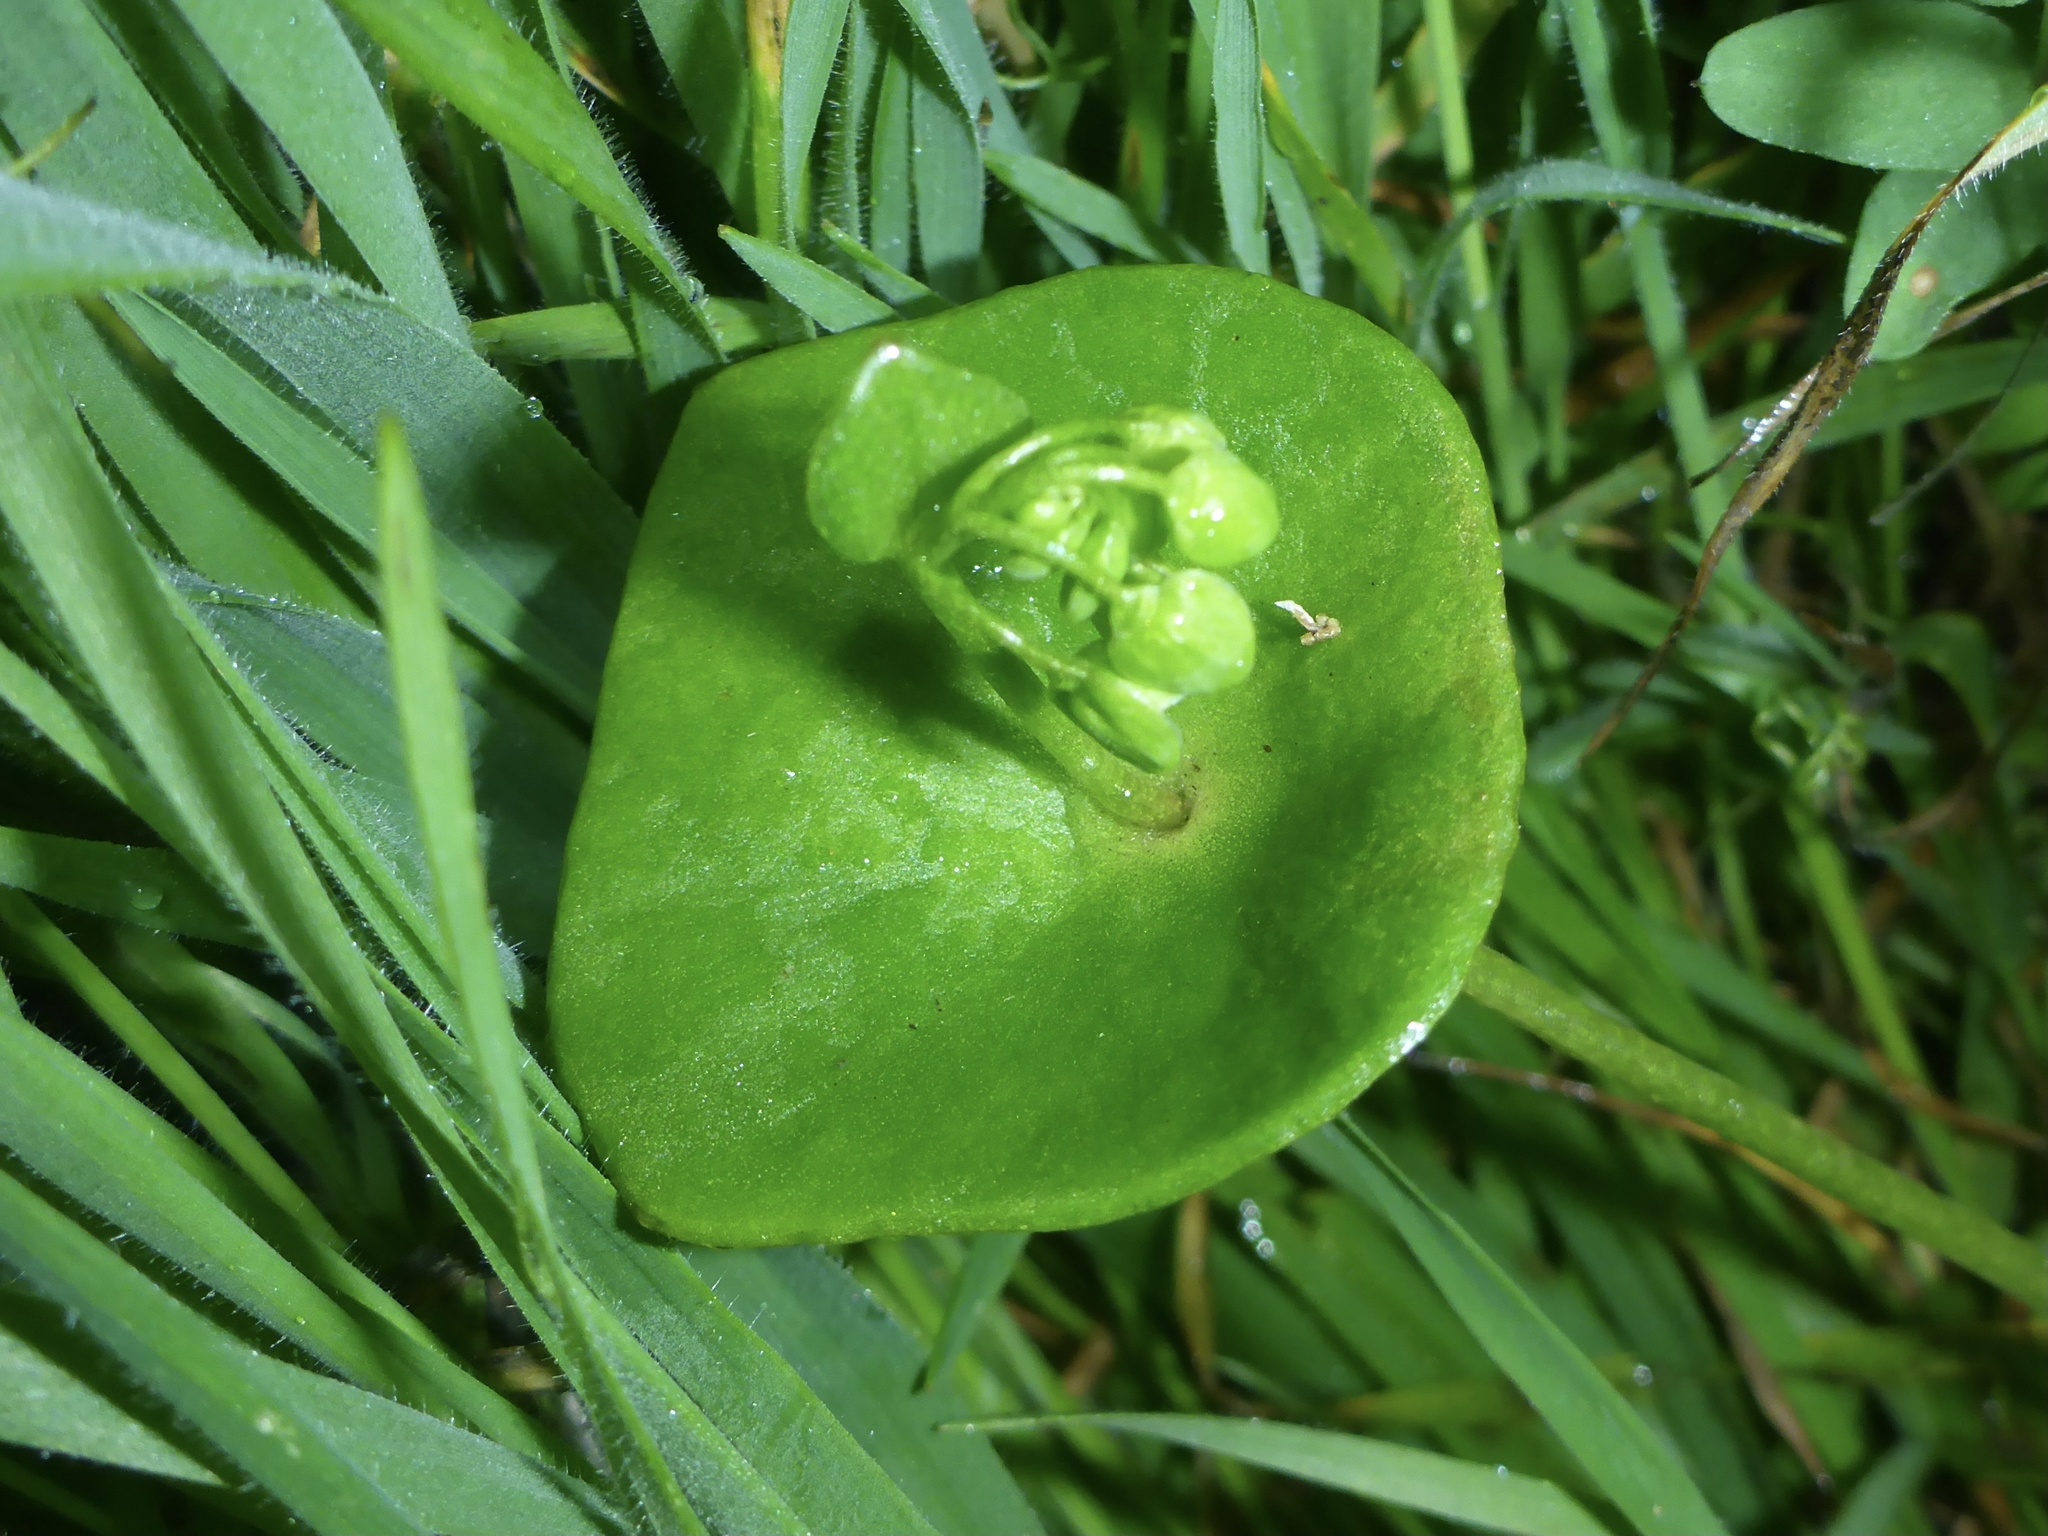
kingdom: Plantae
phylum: Tracheophyta
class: Magnoliopsida
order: Caryophyllales
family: Montiaceae
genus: Claytonia
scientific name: Claytonia perfoliata
